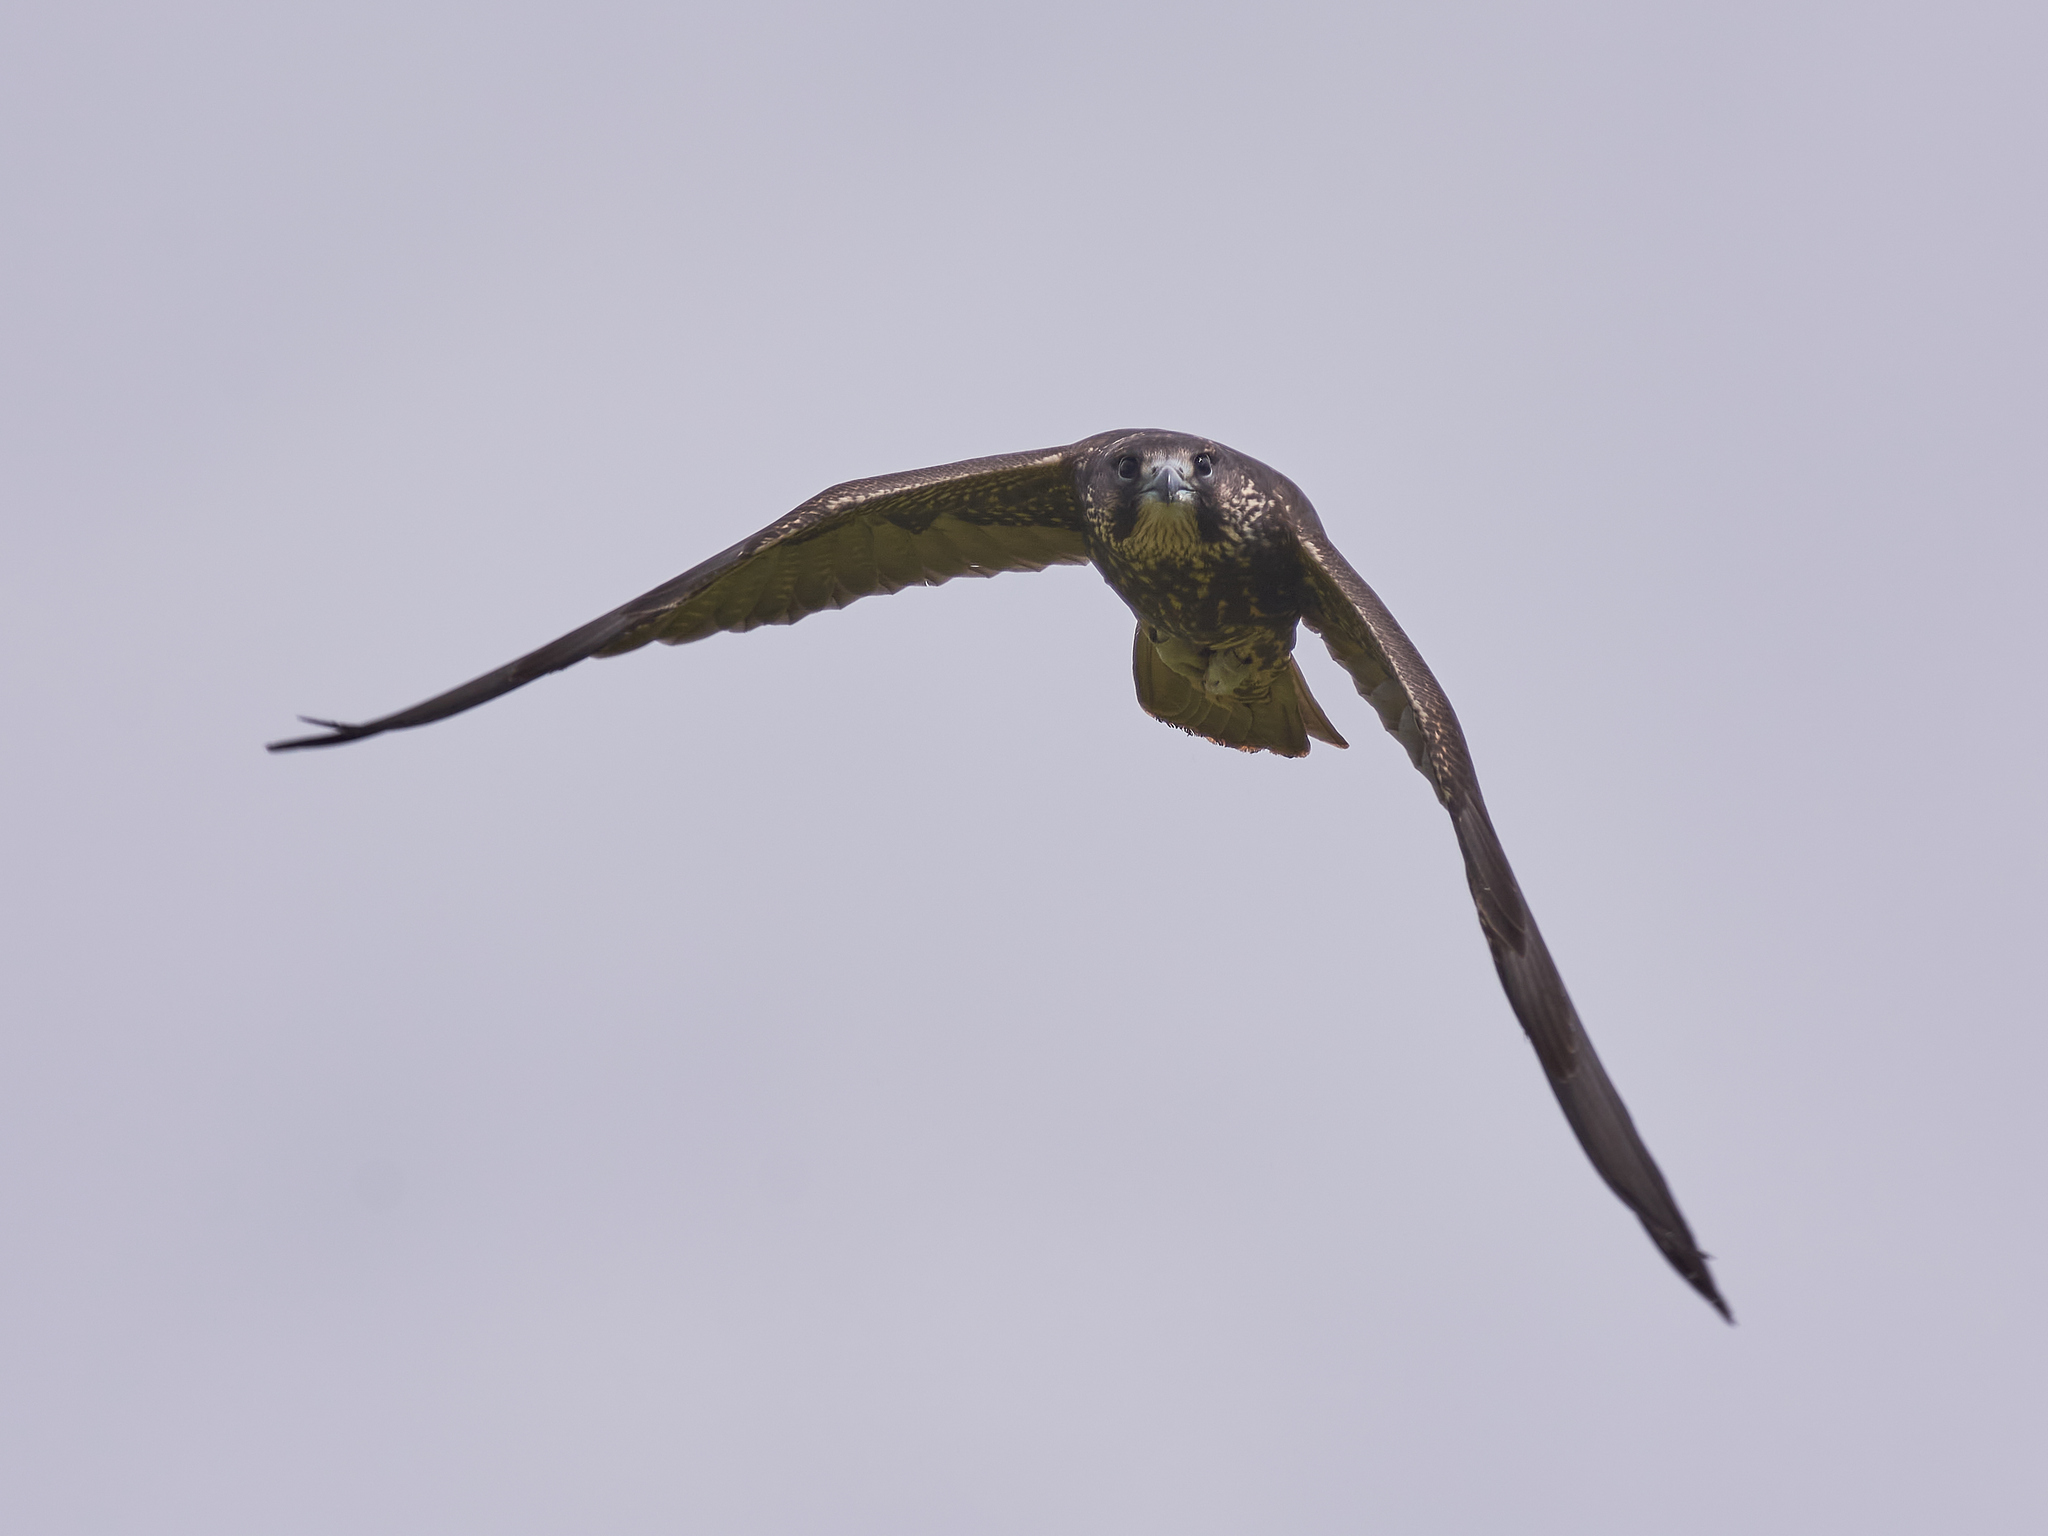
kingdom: Animalia
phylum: Chordata
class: Aves
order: Falconiformes
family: Falconidae
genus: Falco
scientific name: Falco cherrug
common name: Saker falcon
